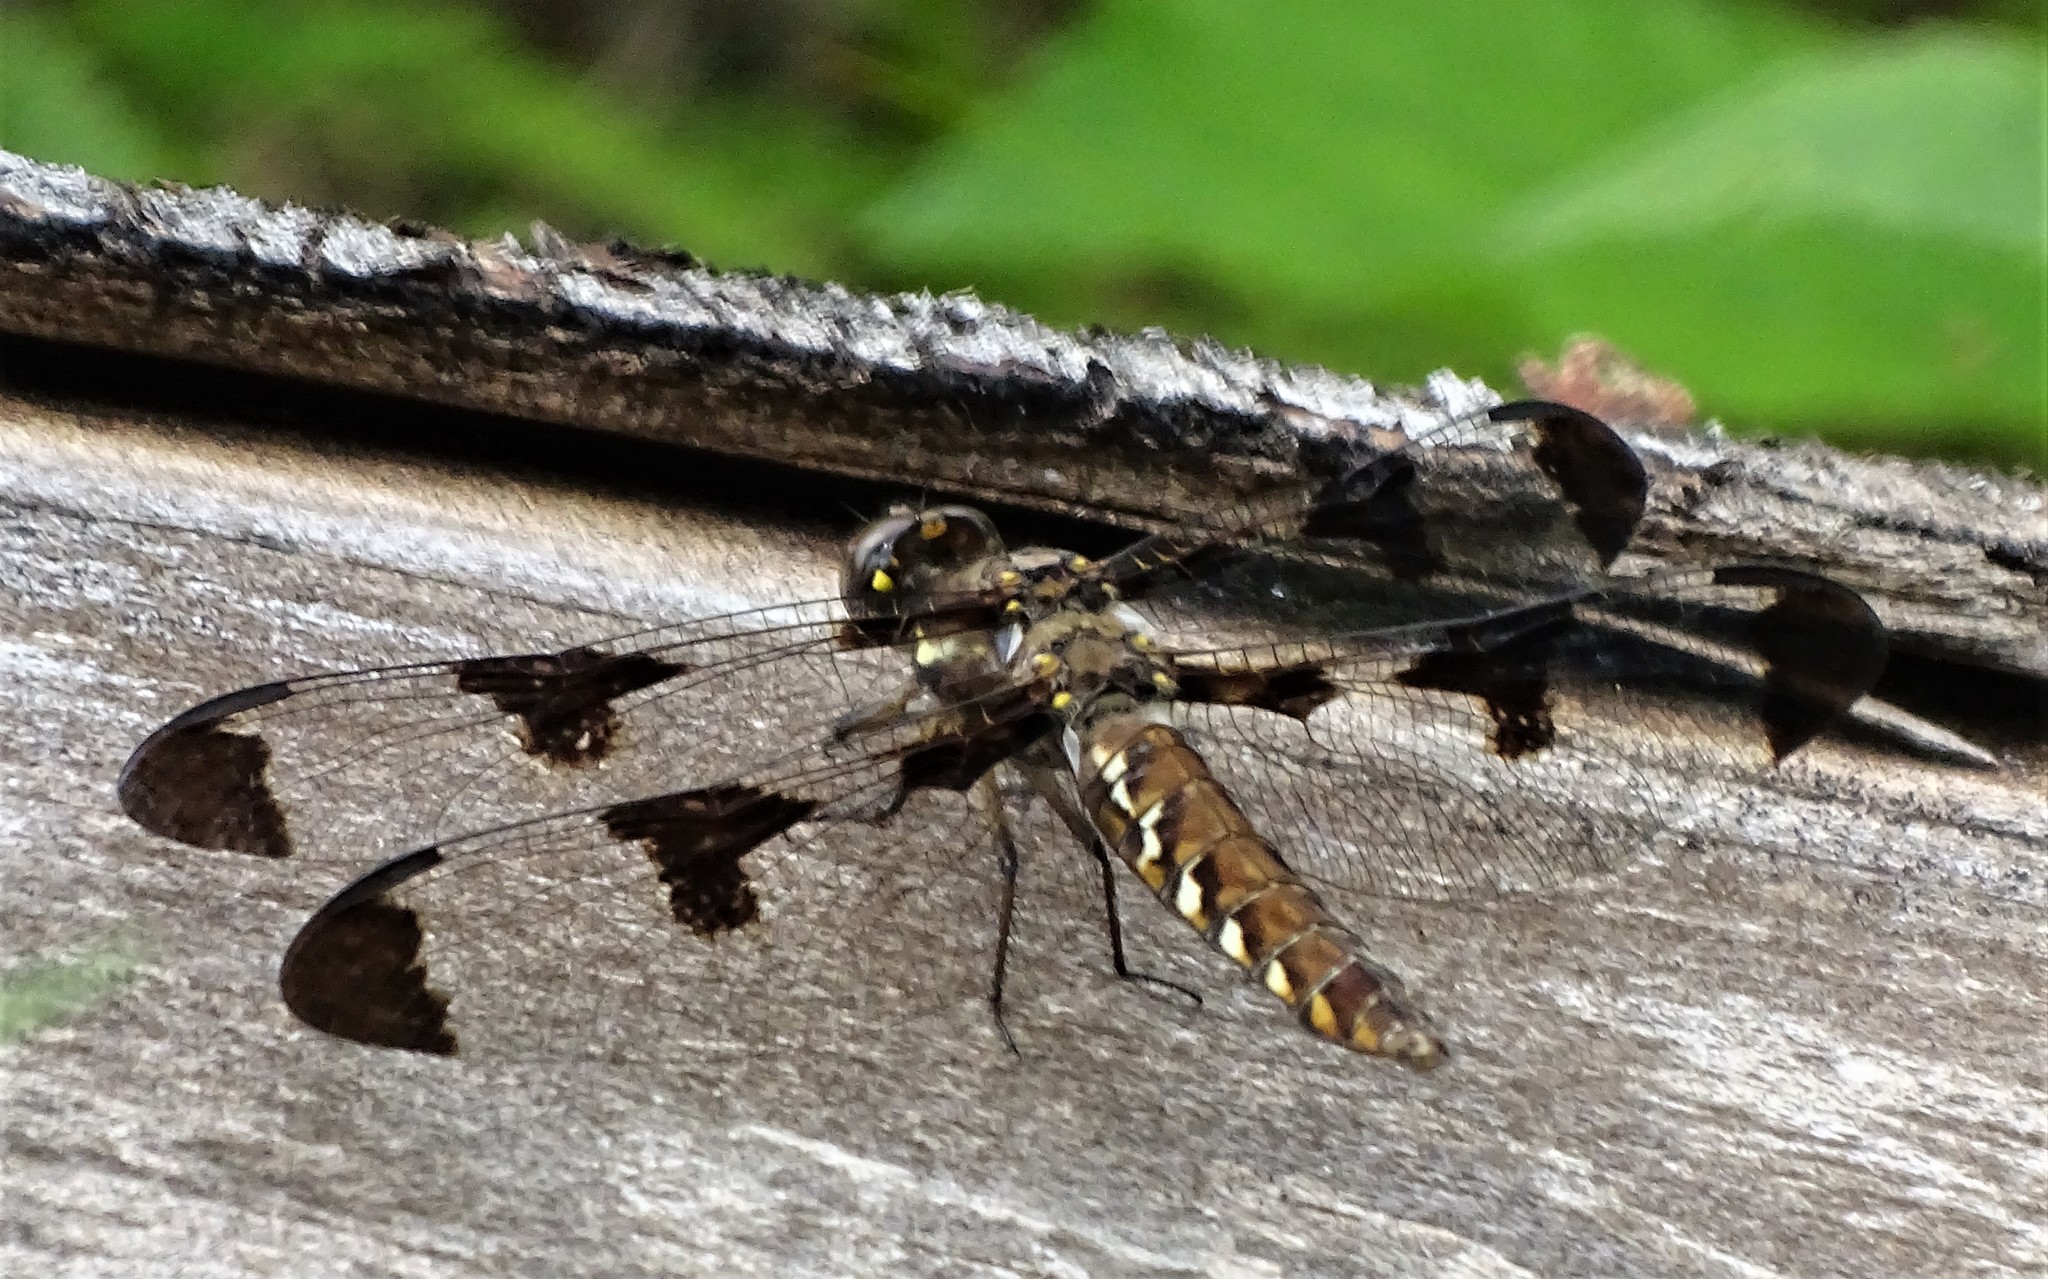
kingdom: Animalia
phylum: Arthropoda
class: Insecta
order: Odonata
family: Libellulidae
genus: Plathemis
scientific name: Plathemis lydia
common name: Common whitetail
